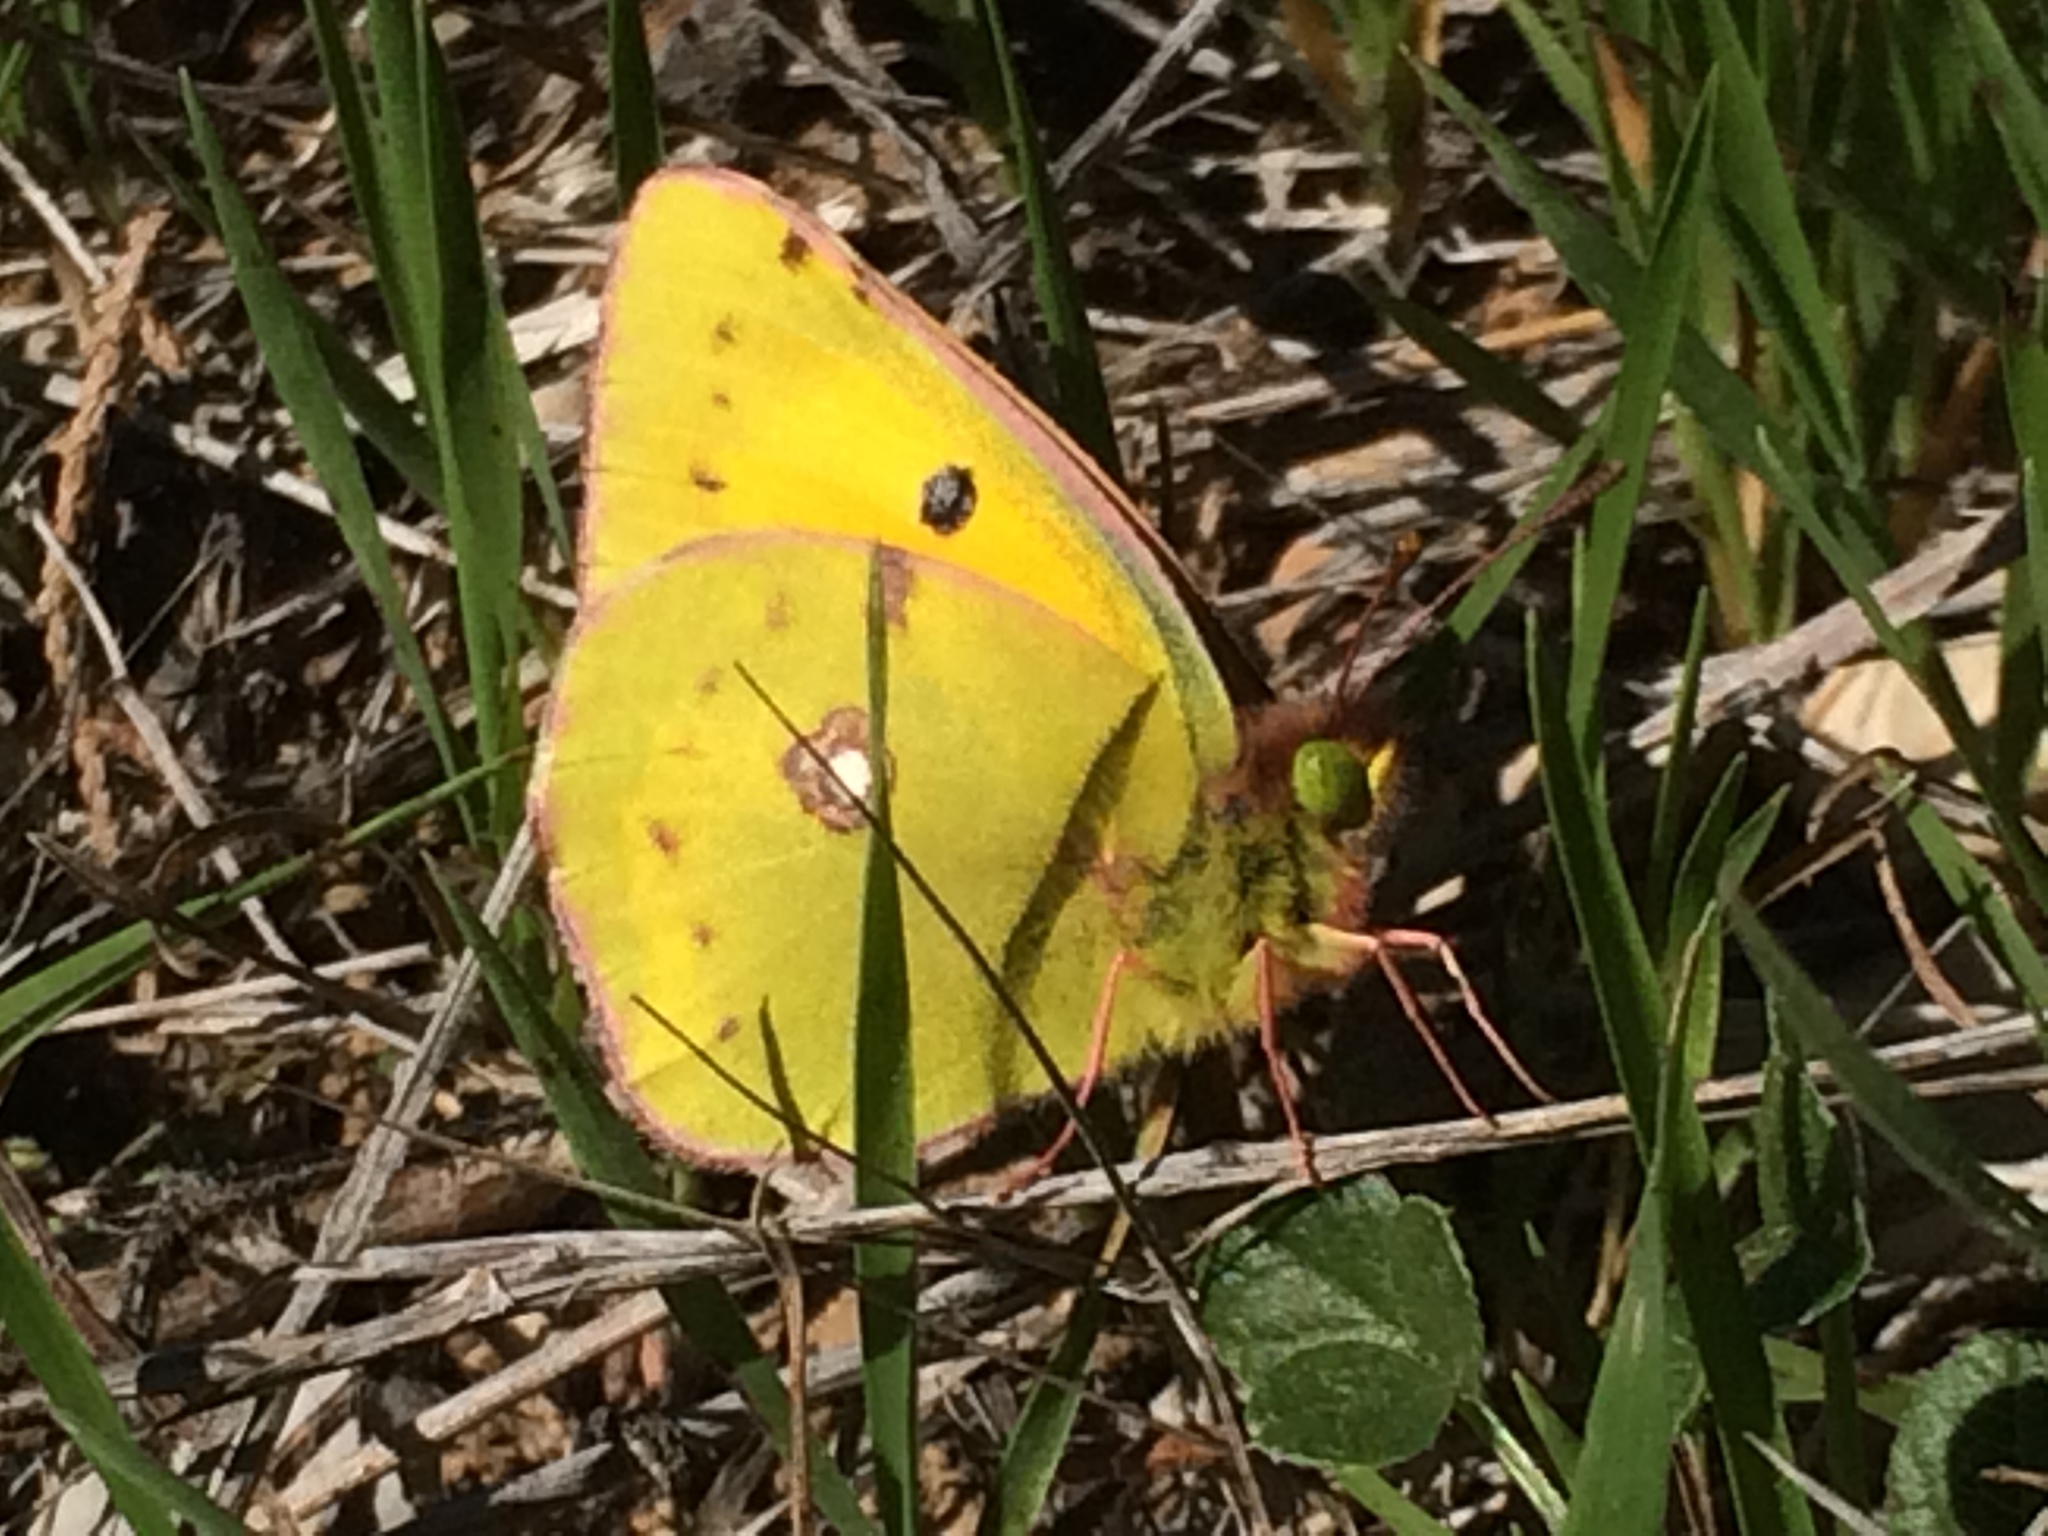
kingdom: Animalia
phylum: Arthropoda
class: Insecta
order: Lepidoptera
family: Pieridae
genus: Colias
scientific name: Colias croceus
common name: Clouded yellow
